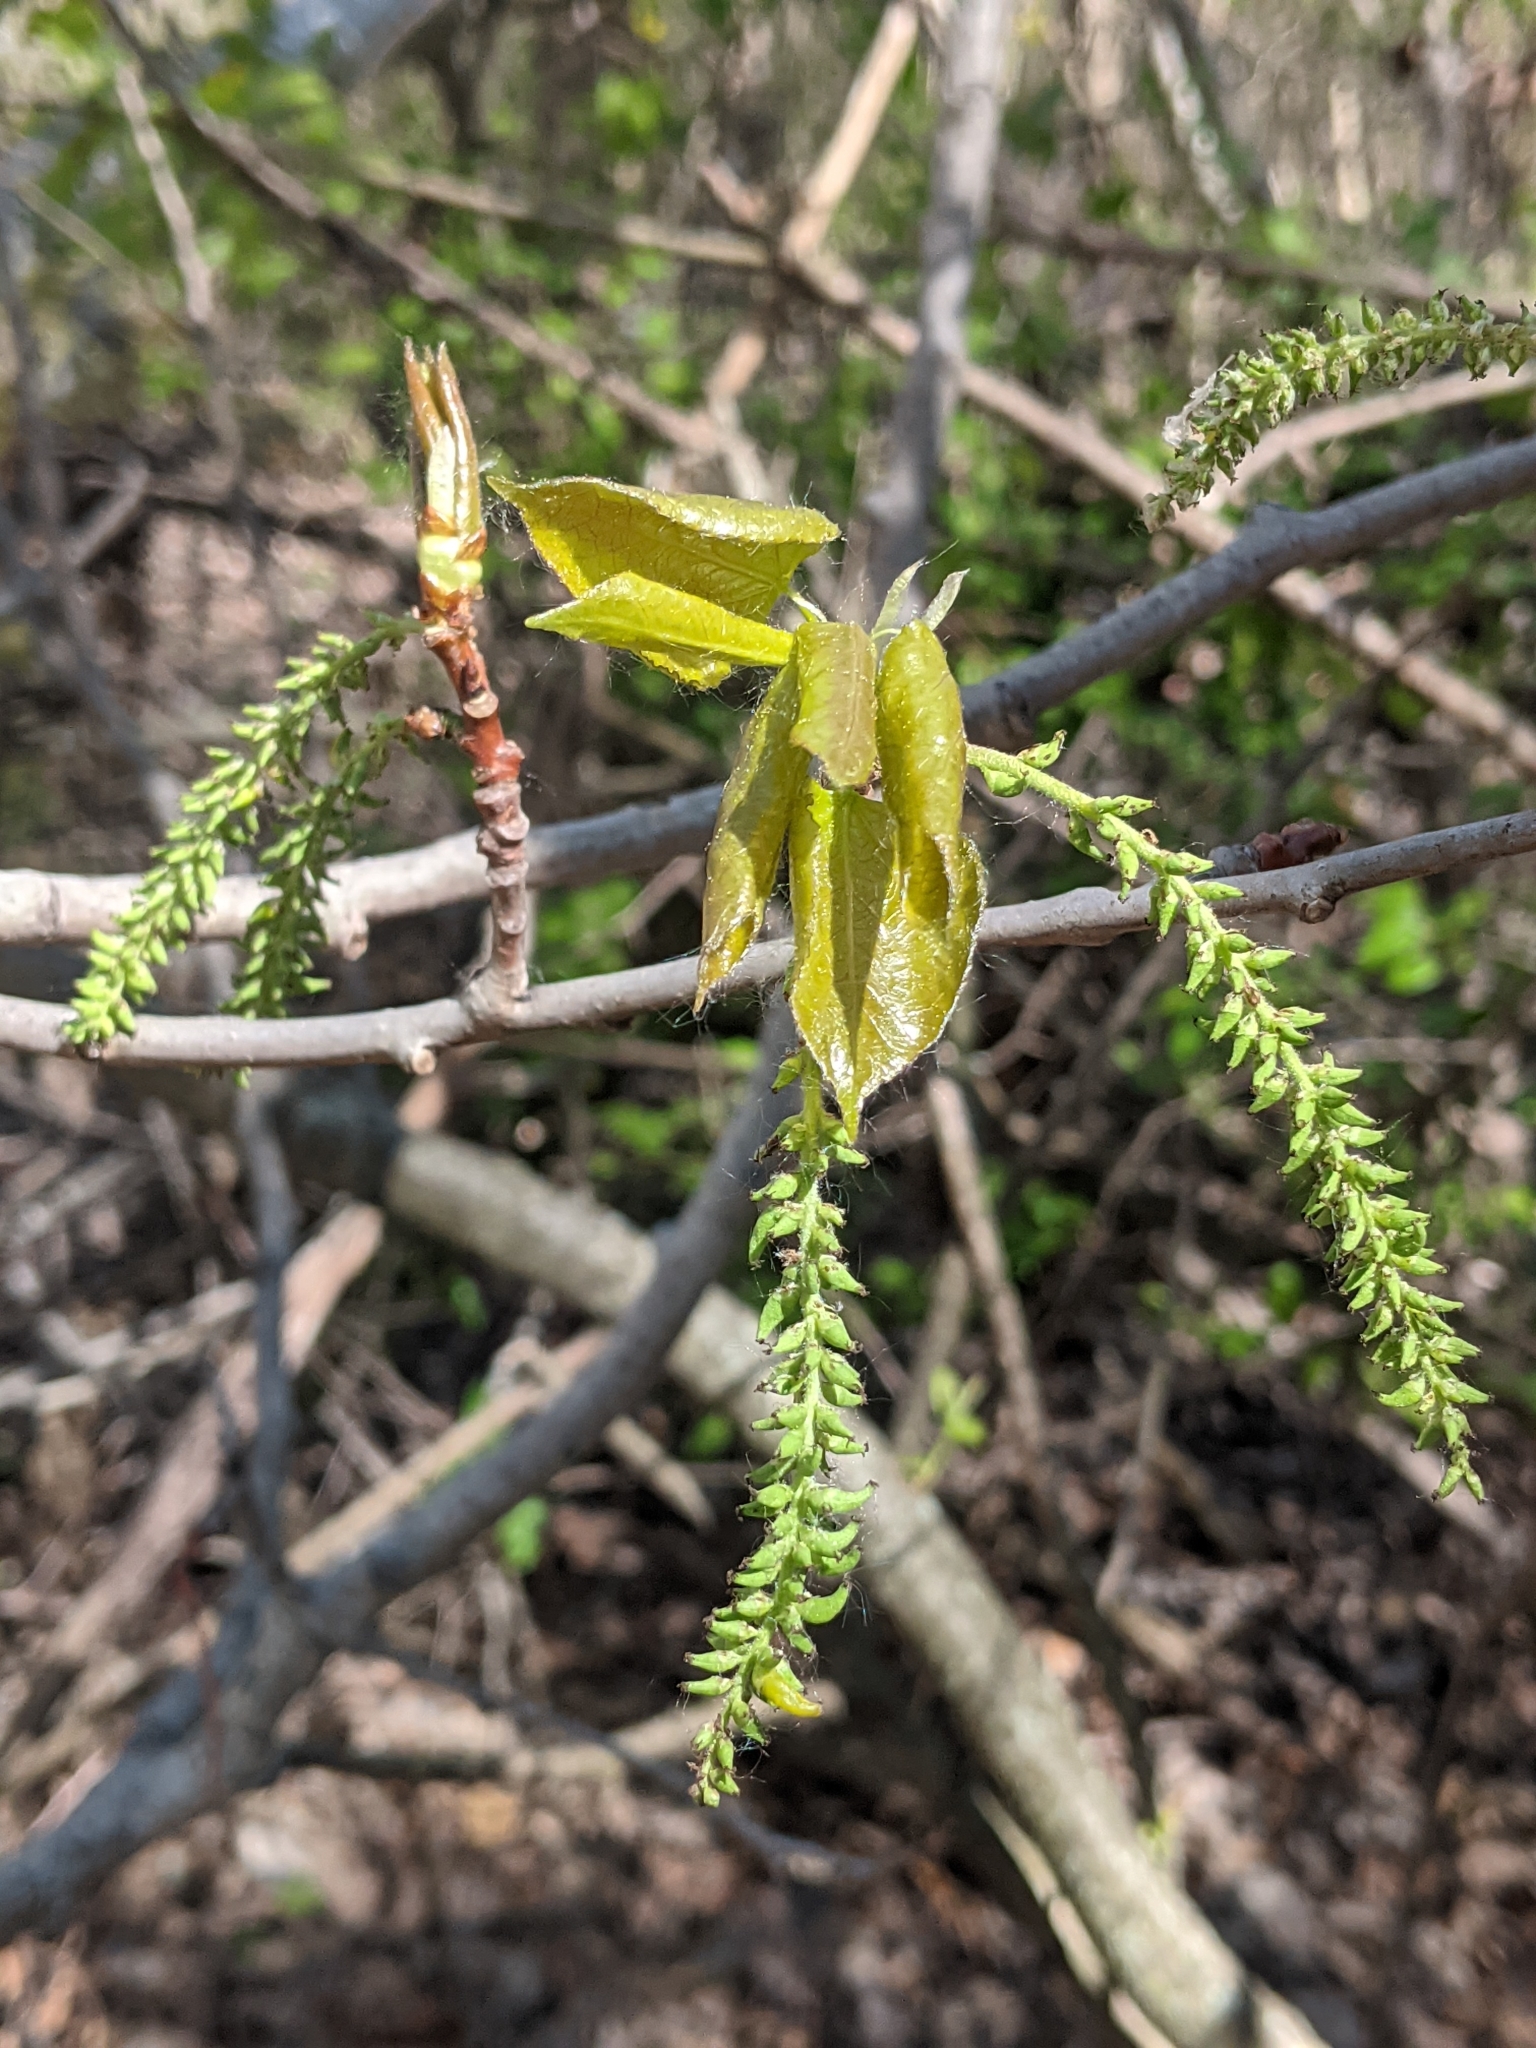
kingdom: Plantae
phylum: Tracheophyta
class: Magnoliopsida
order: Malpighiales
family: Salicaceae
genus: Populus
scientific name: Populus tremuloides
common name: Quaking aspen
